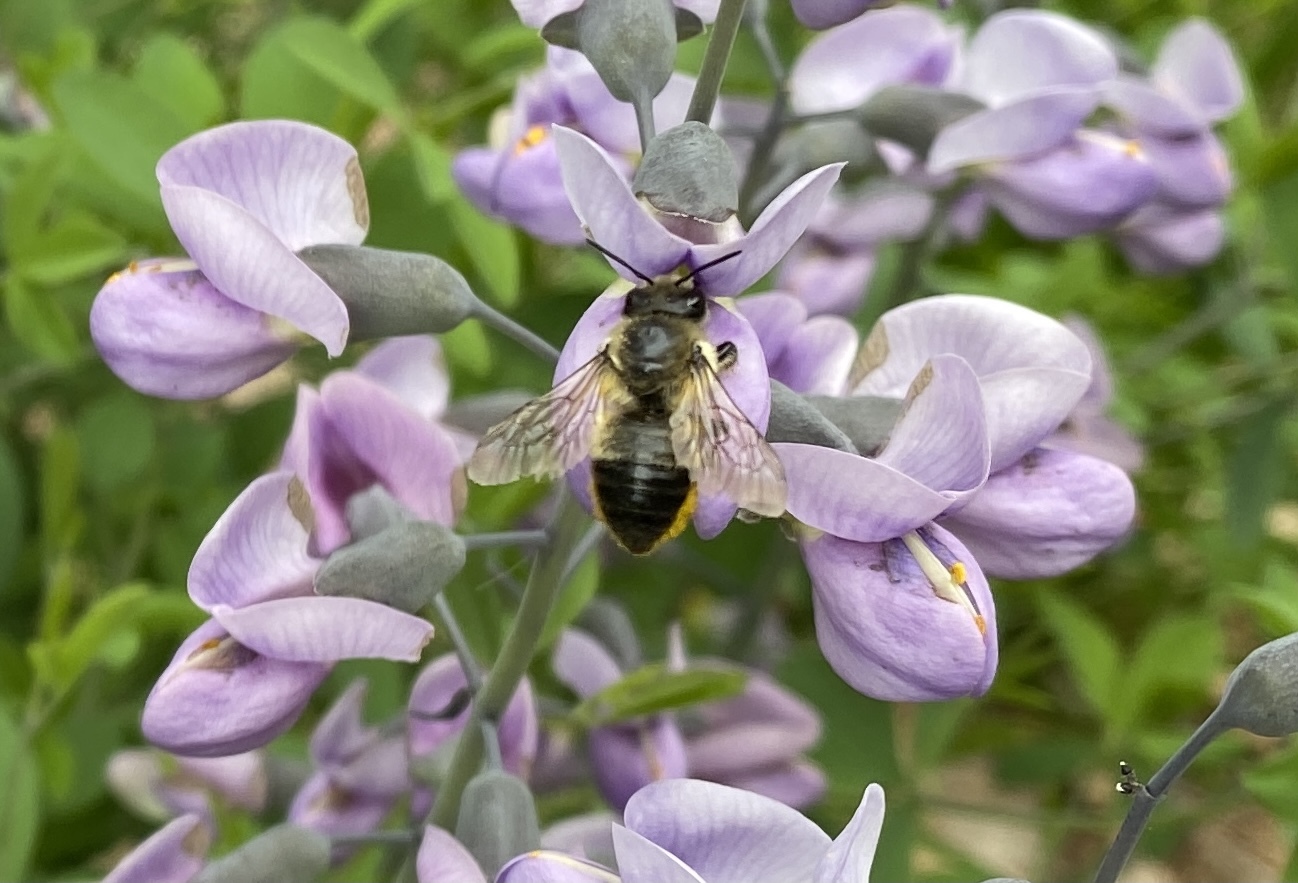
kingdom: Animalia
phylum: Arthropoda
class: Insecta
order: Hymenoptera
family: Megachilidae
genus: Megachile
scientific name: Megachile melanophaea
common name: Black-and-gray leafcutter bee
